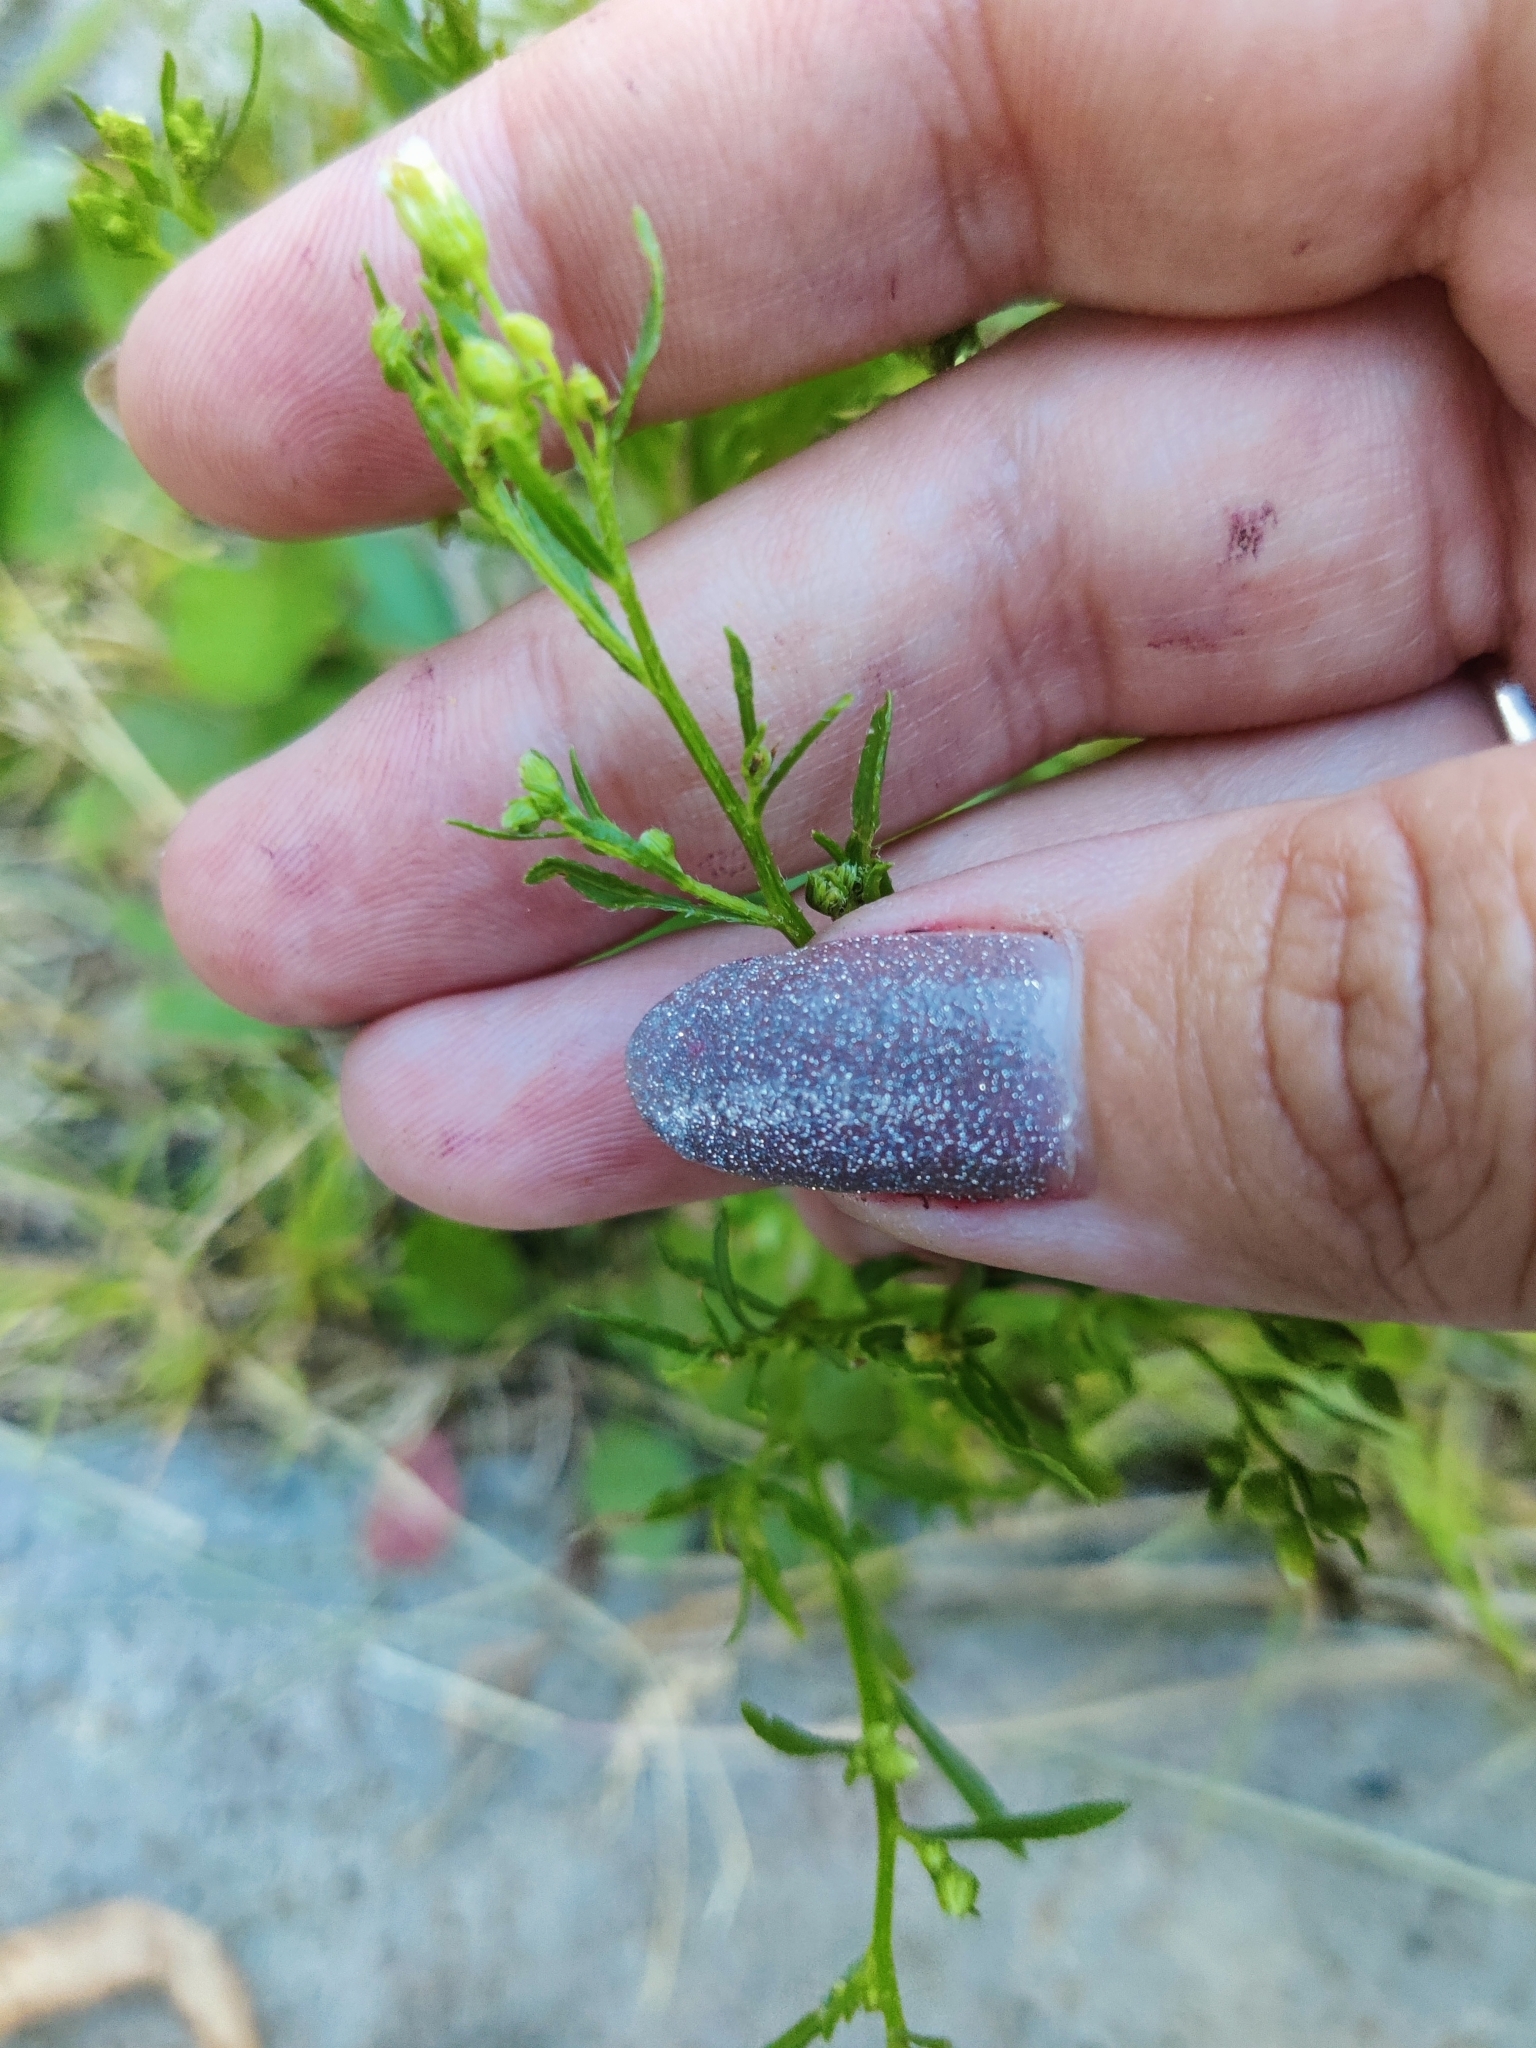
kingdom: Plantae
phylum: Tracheophyta
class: Magnoliopsida
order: Asterales
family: Asteraceae
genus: Erigeron
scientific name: Erigeron canadensis
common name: Canadian fleabane
